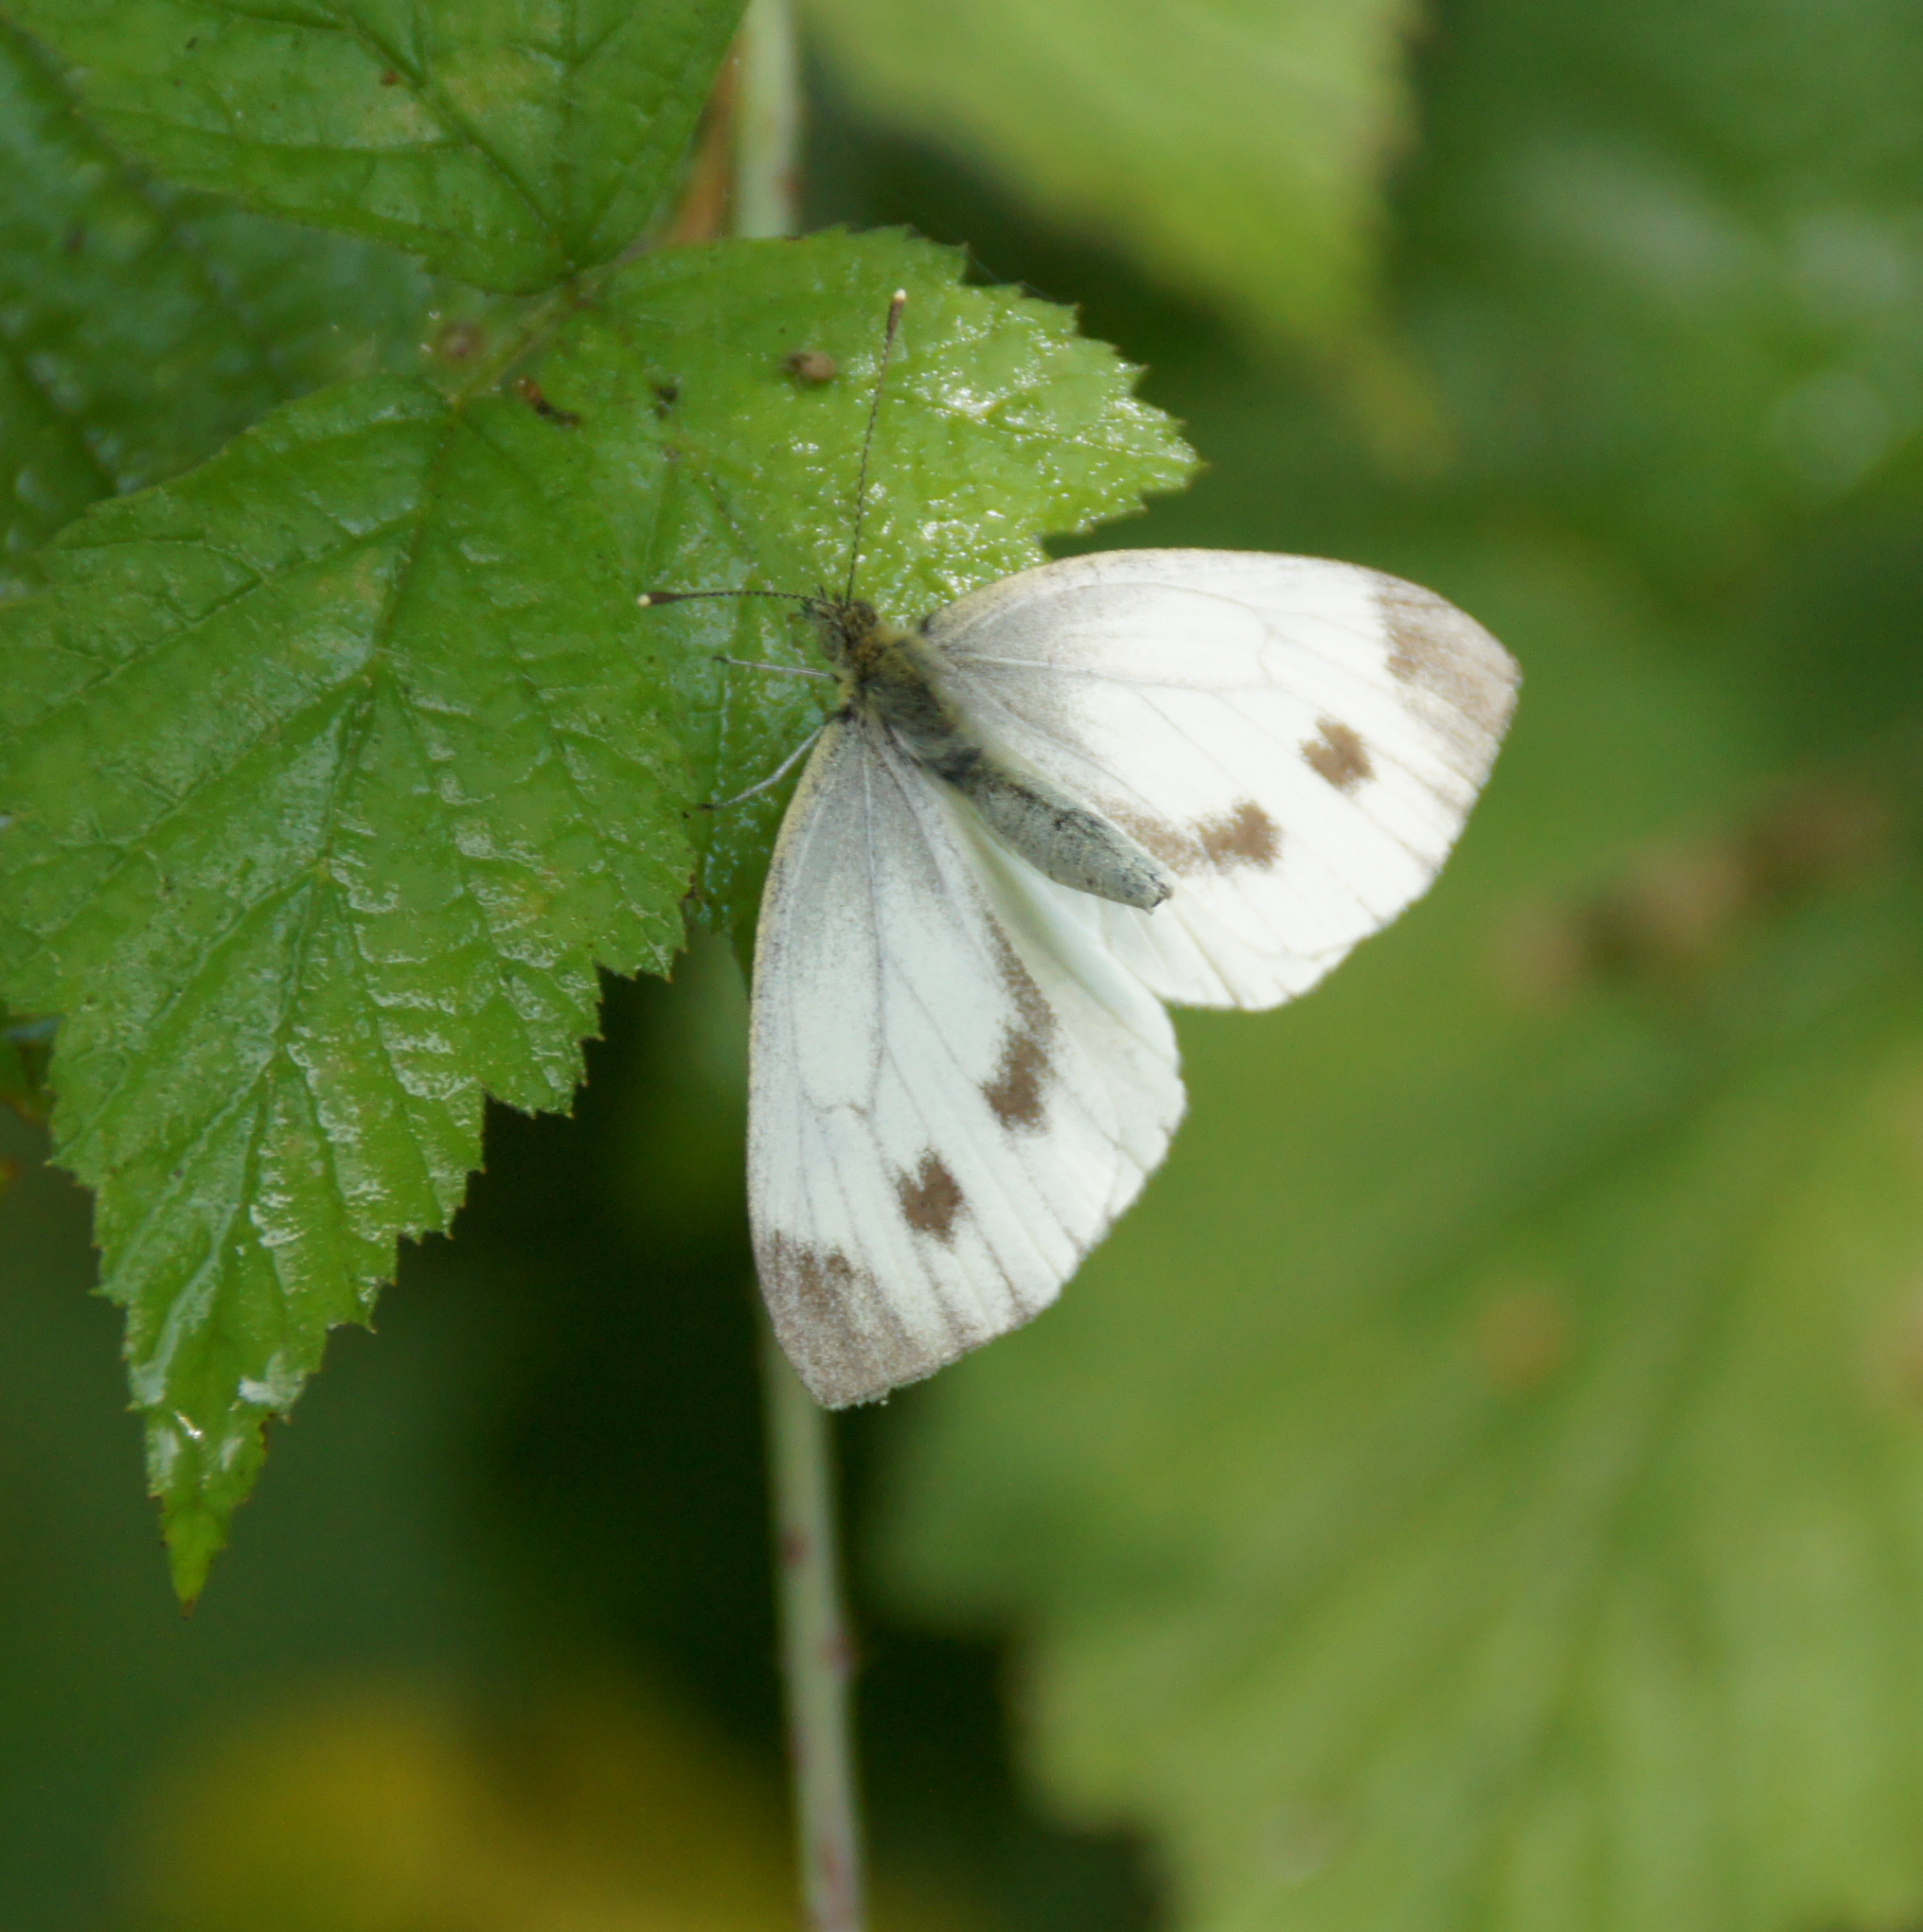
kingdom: Animalia
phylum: Arthropoda
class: Insecta
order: Lepidoptera
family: Pieridae
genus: Pieris
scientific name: Pieris napi
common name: Green-veined white
